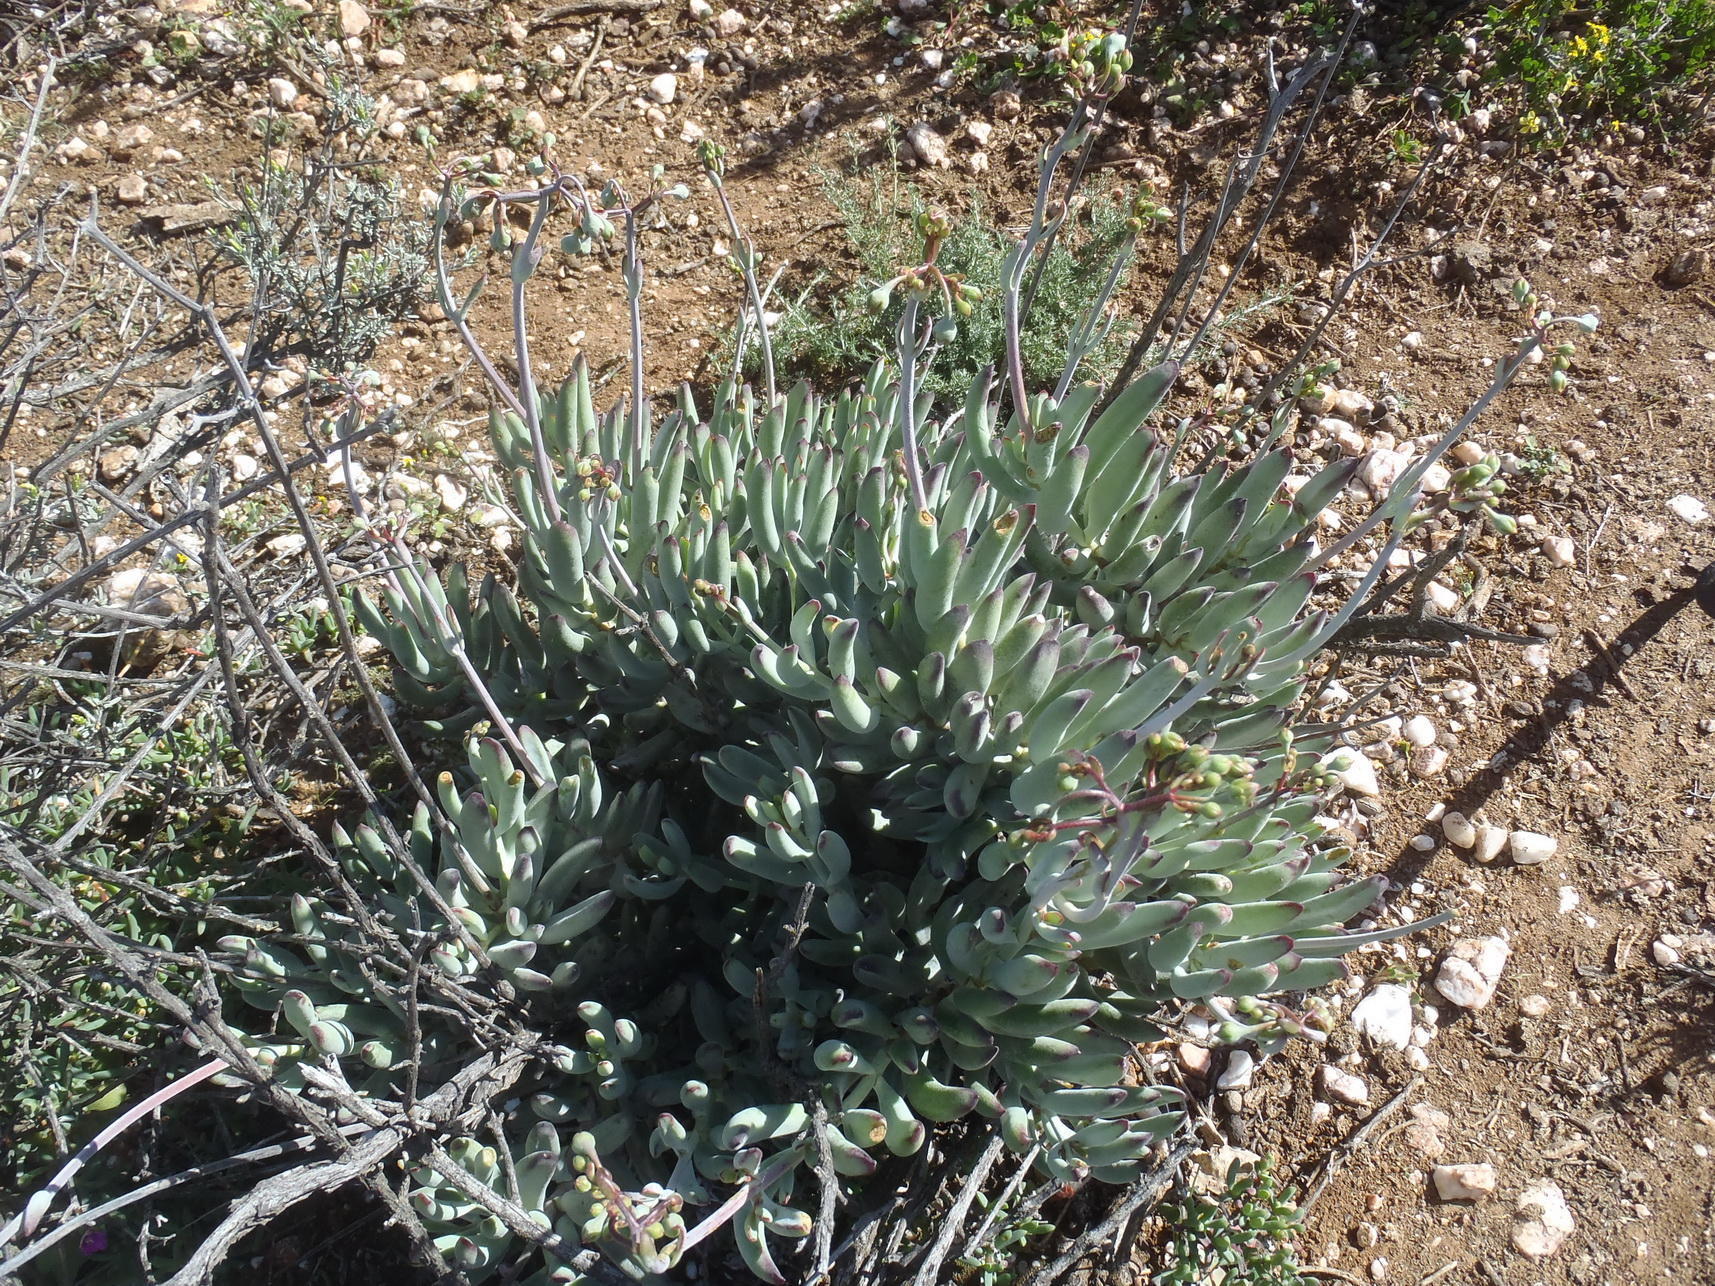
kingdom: Plantae
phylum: Tracheophyta
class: Magnoliopsida
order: Saxifragales
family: Crassulaceae
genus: Cotyledon
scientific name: Cotyledon orbiculata
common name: Pig's ear
